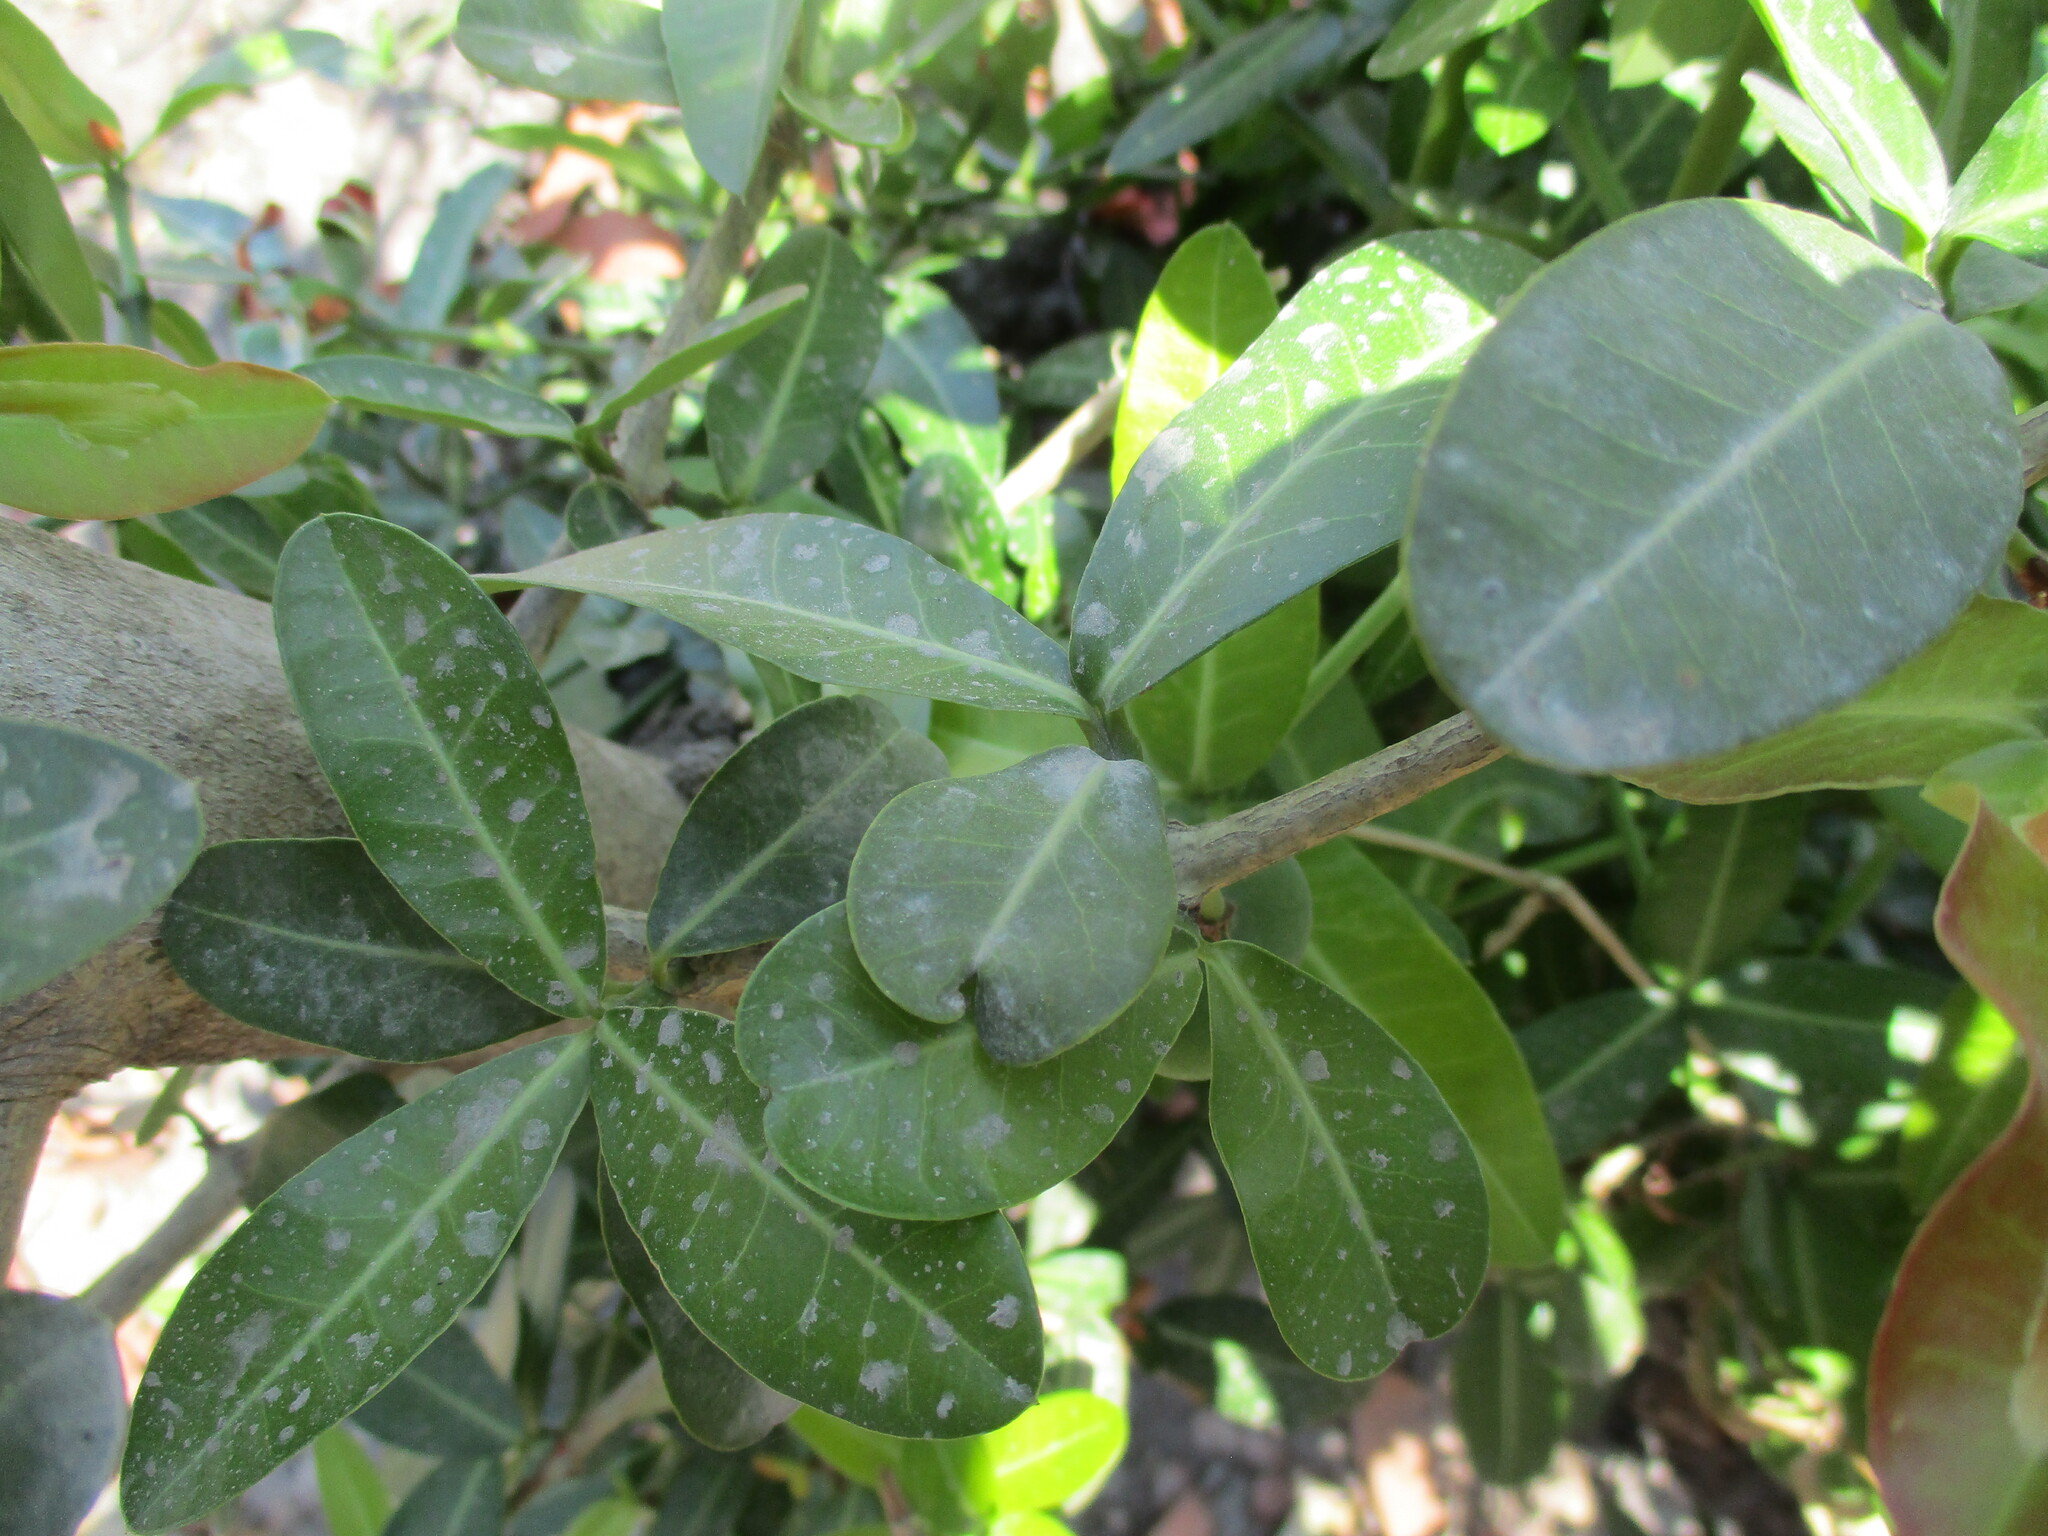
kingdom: Plantae
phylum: Tracheophyta
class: Magnoliopsida
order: Malpighiales
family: Clusiaceae
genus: Garcinia
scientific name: Garcinia livingstonei
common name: African mangosteen
